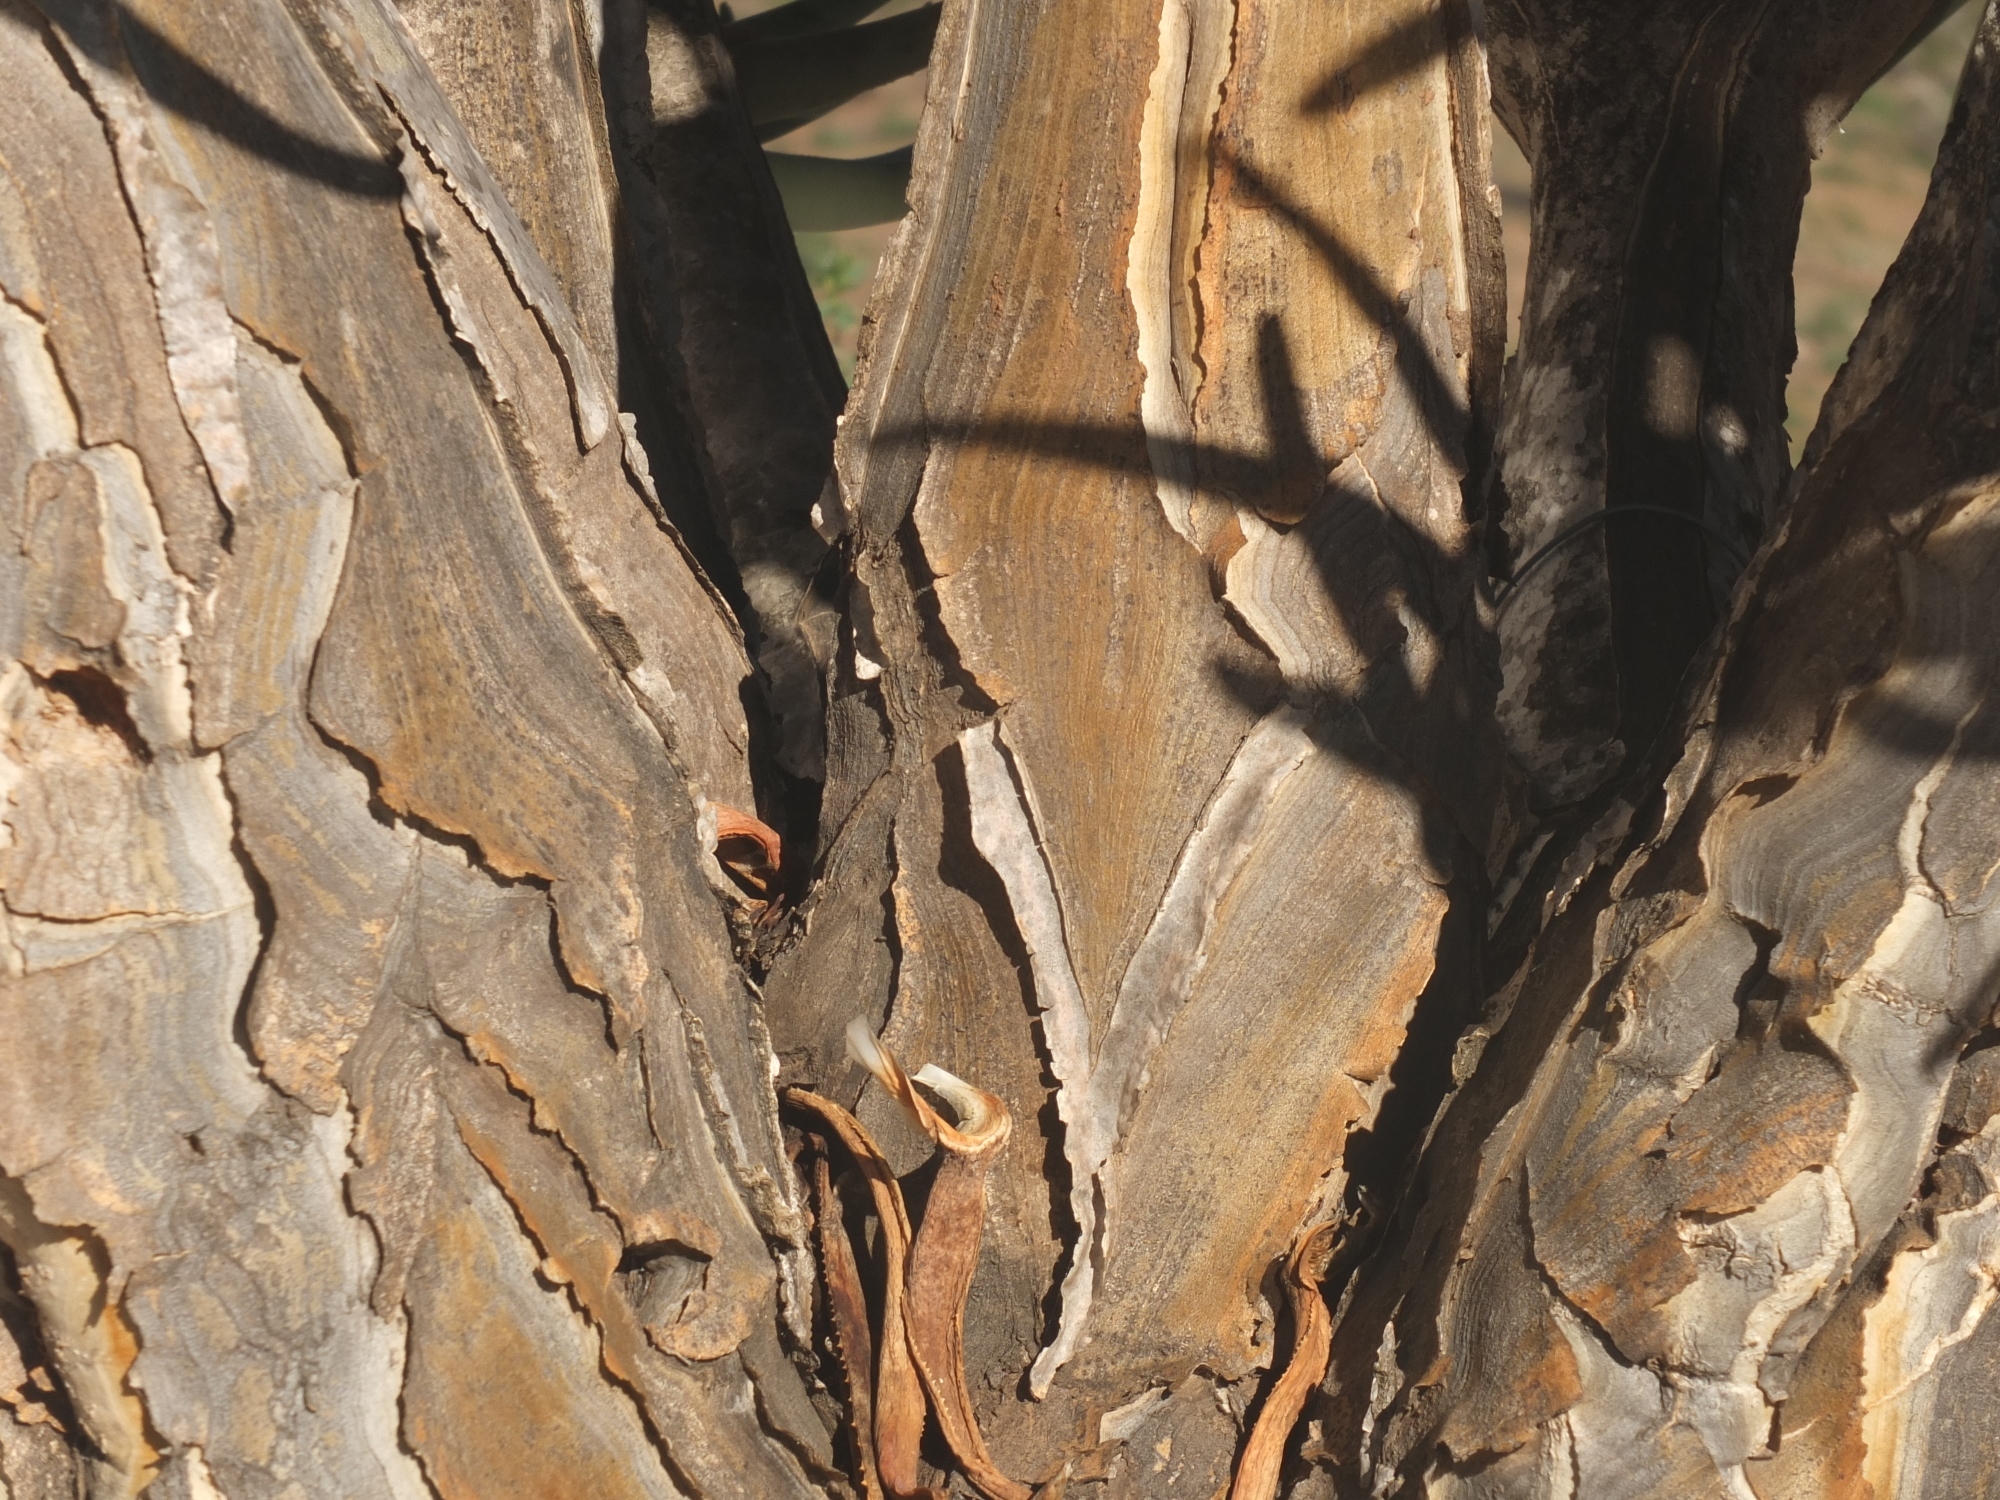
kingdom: Plantae
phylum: Tracheophyta
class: Liliopsida
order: Asparagales
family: Asphodelaceae
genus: Aloidendron
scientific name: Aloidendron dichotomum
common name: Quiver tree
